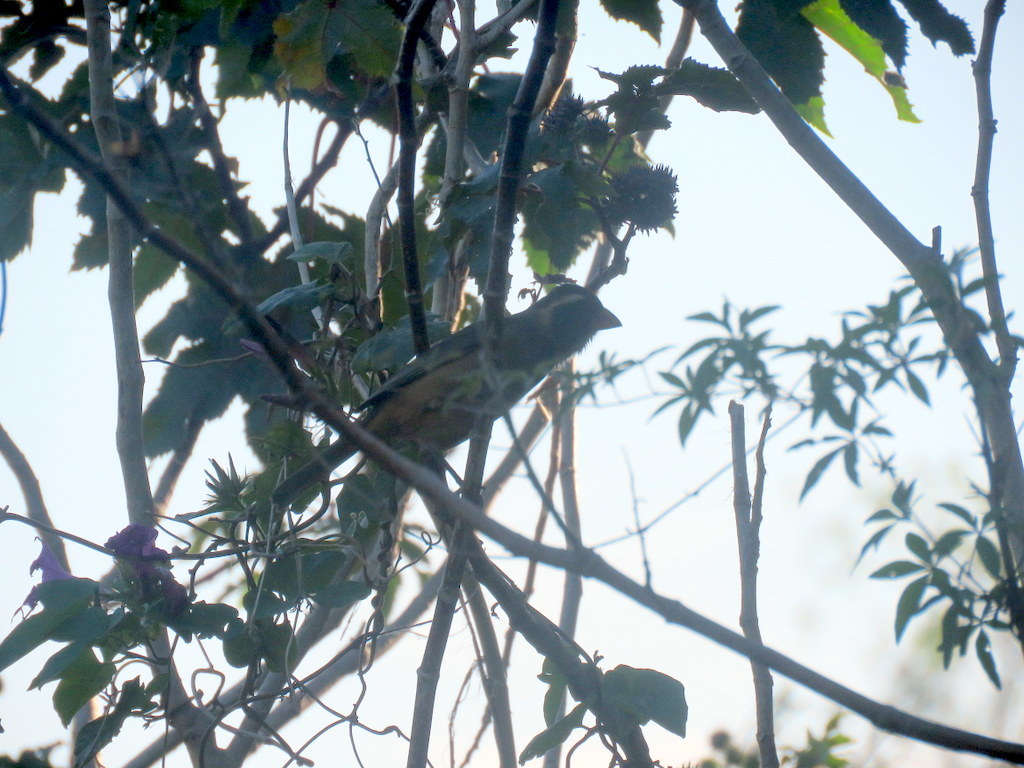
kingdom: Animalia
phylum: Chordata
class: Aves
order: Passeriformes
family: Thraupidae
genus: Saltator
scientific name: Saltator aurantiirostris
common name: Golden-billed saltator
